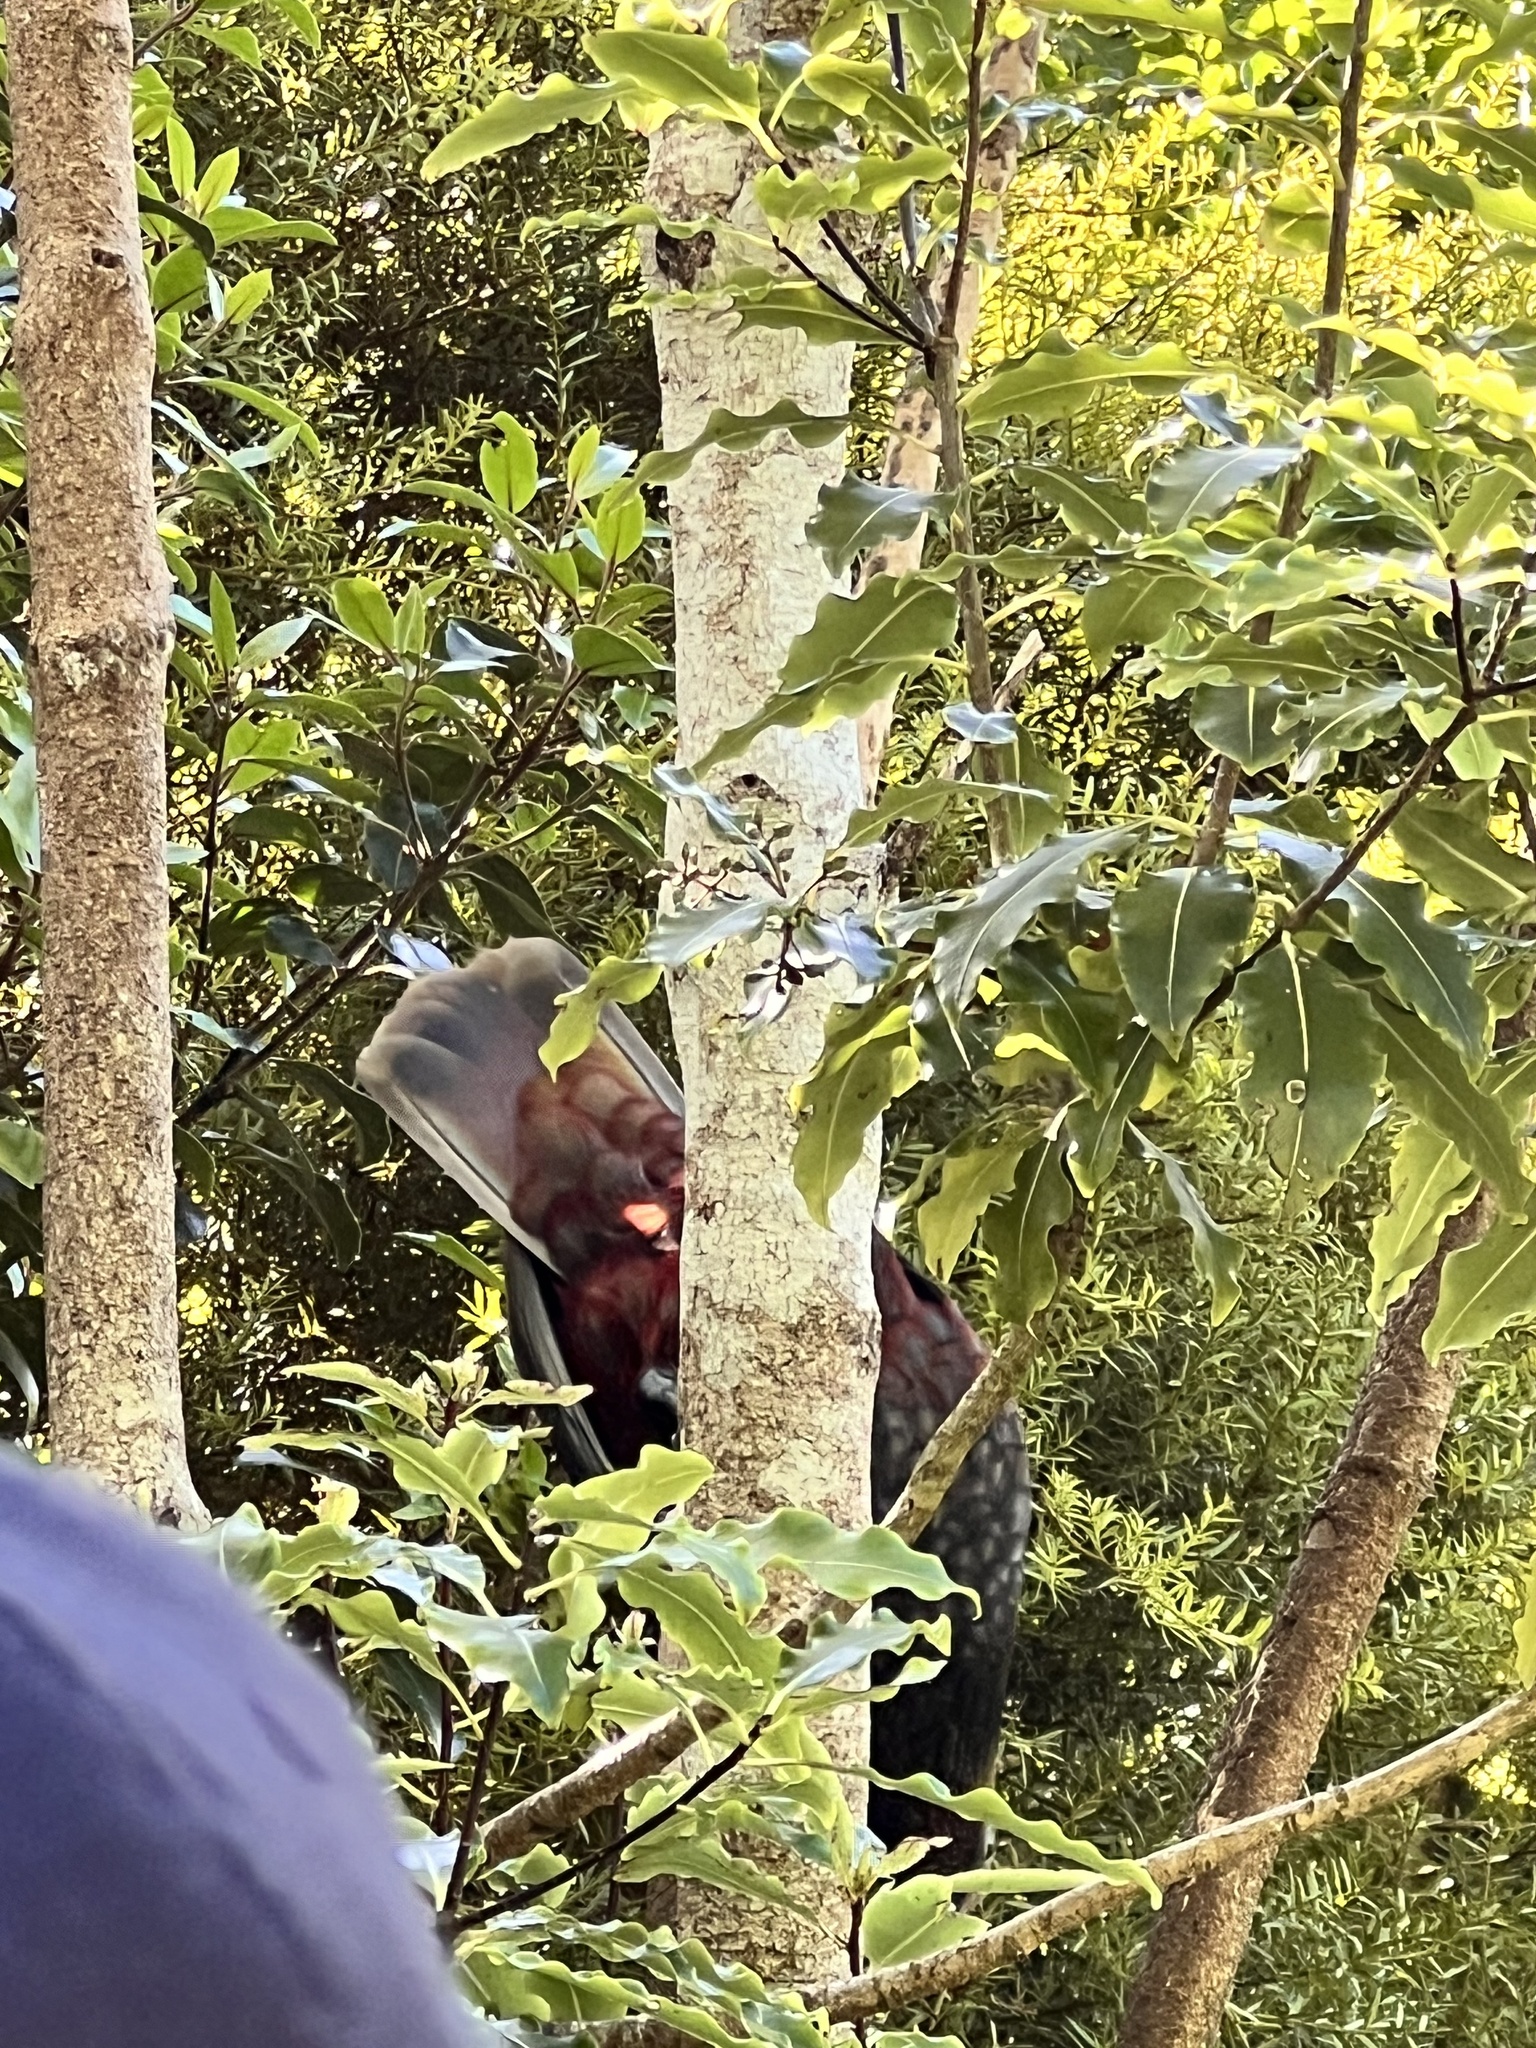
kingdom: Animalia
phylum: Chordata
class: Aves
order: Psittaciformes
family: Psittacidae
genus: Nestor
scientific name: Nestor meridionalis
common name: New zealand kaka
